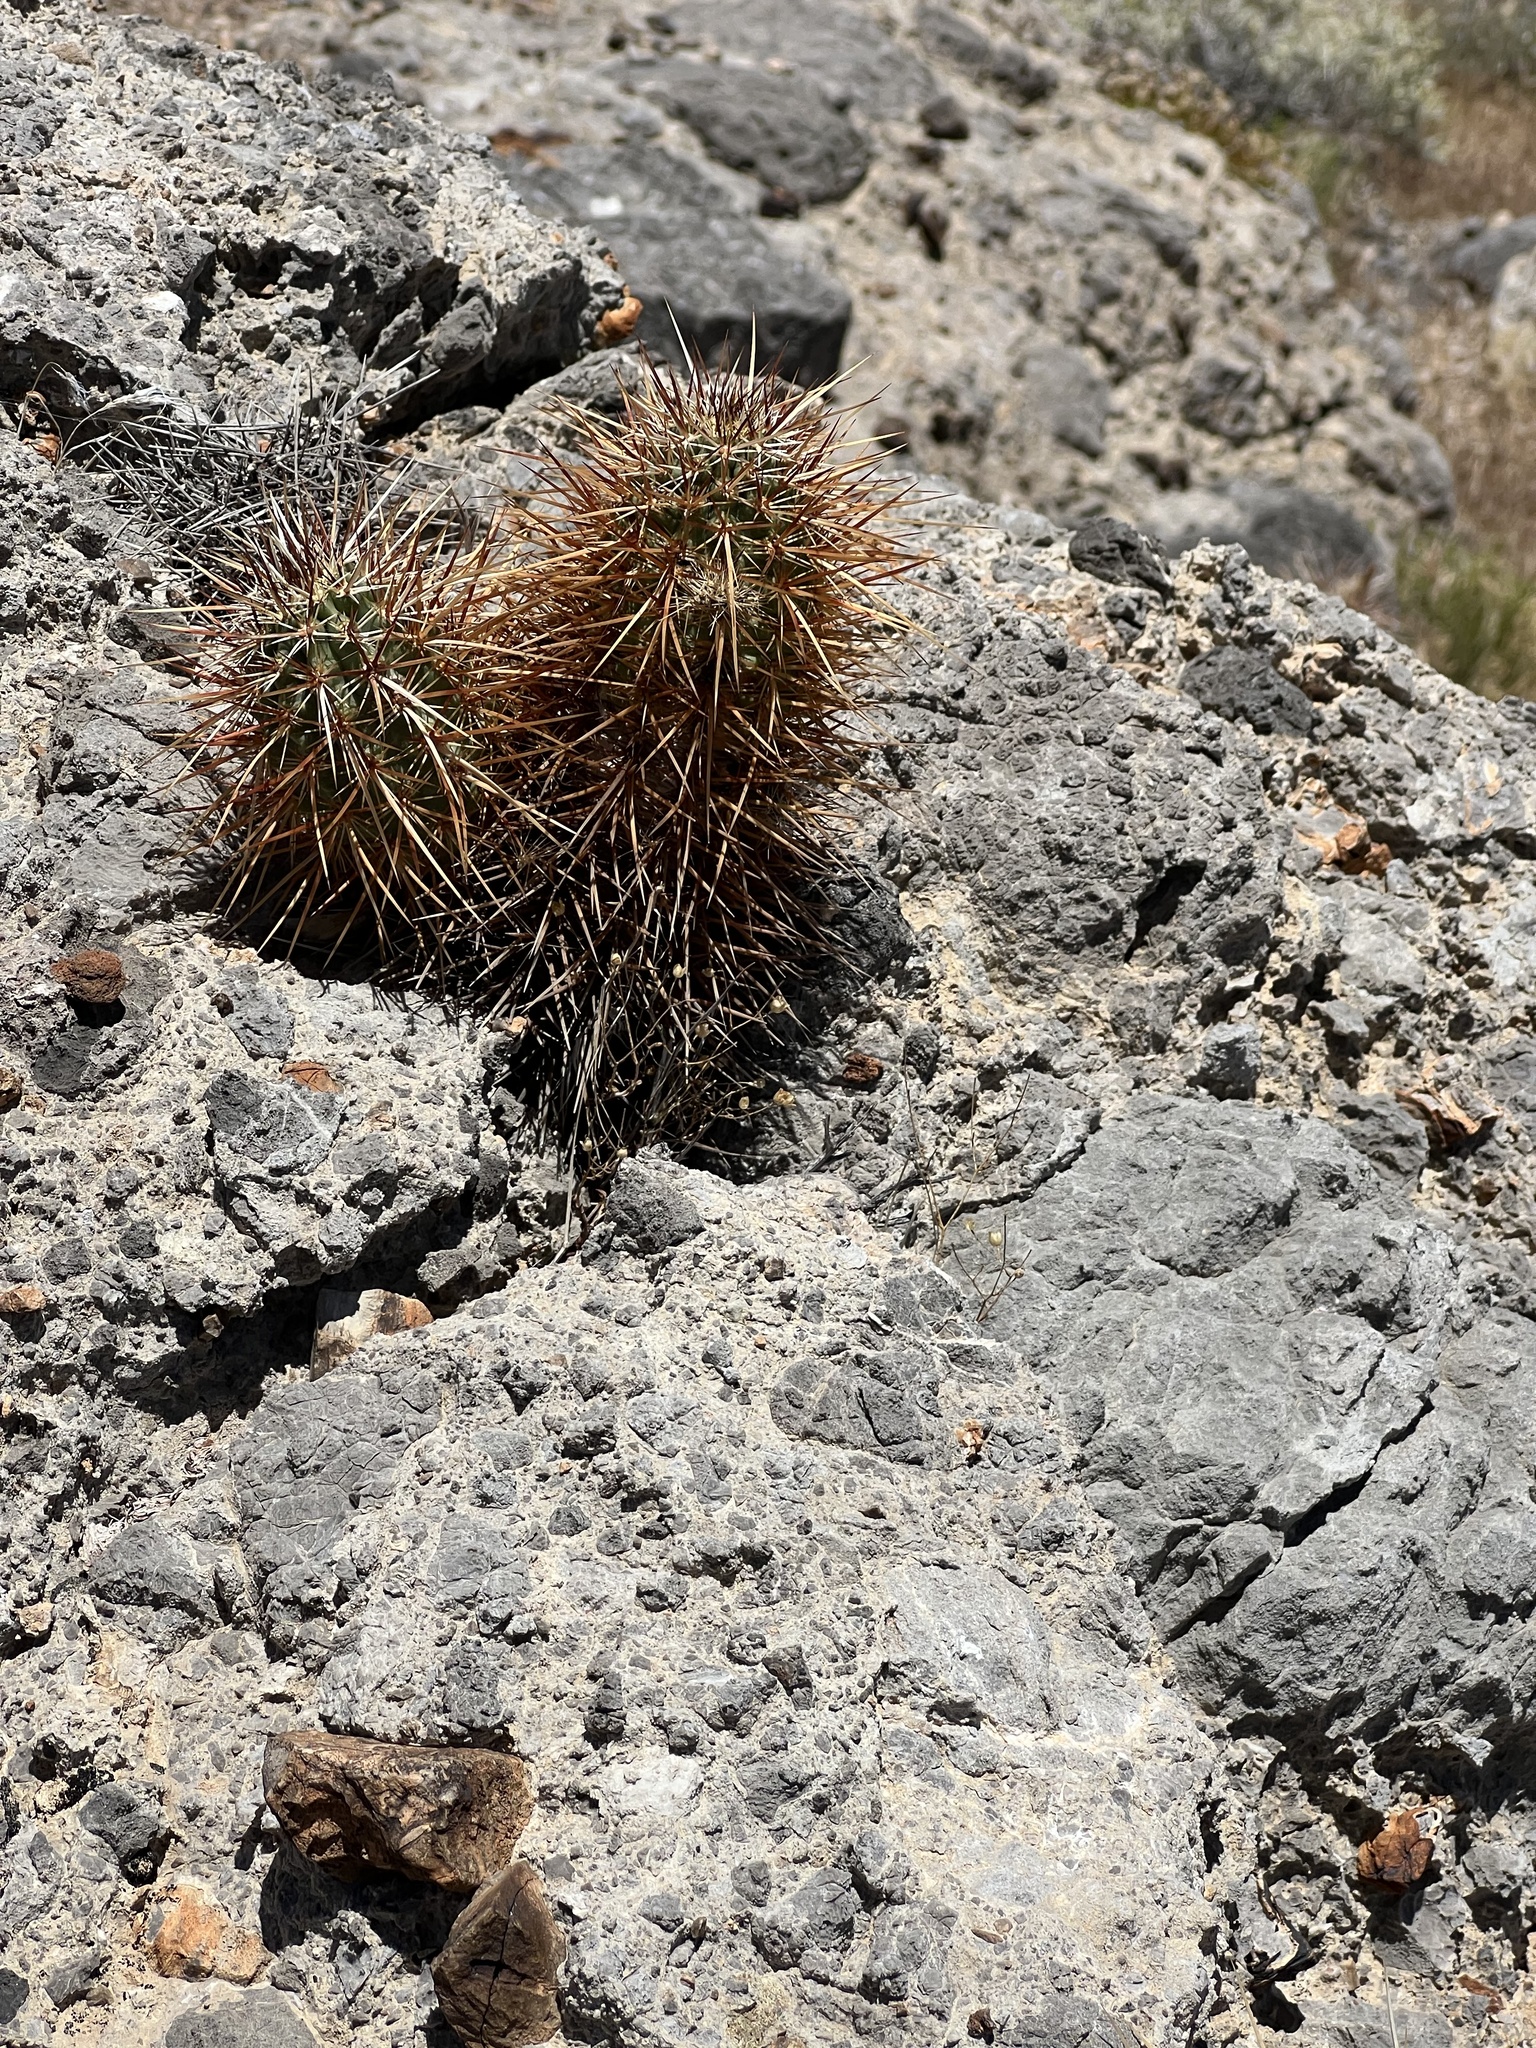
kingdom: Plantae
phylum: Tracheophyta
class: Magnoliopsida
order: Caryophyllales
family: Cactaceae
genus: Echinocereus
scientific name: Echinocereus engelmannii
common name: Engelmann's hedgehog cactus
